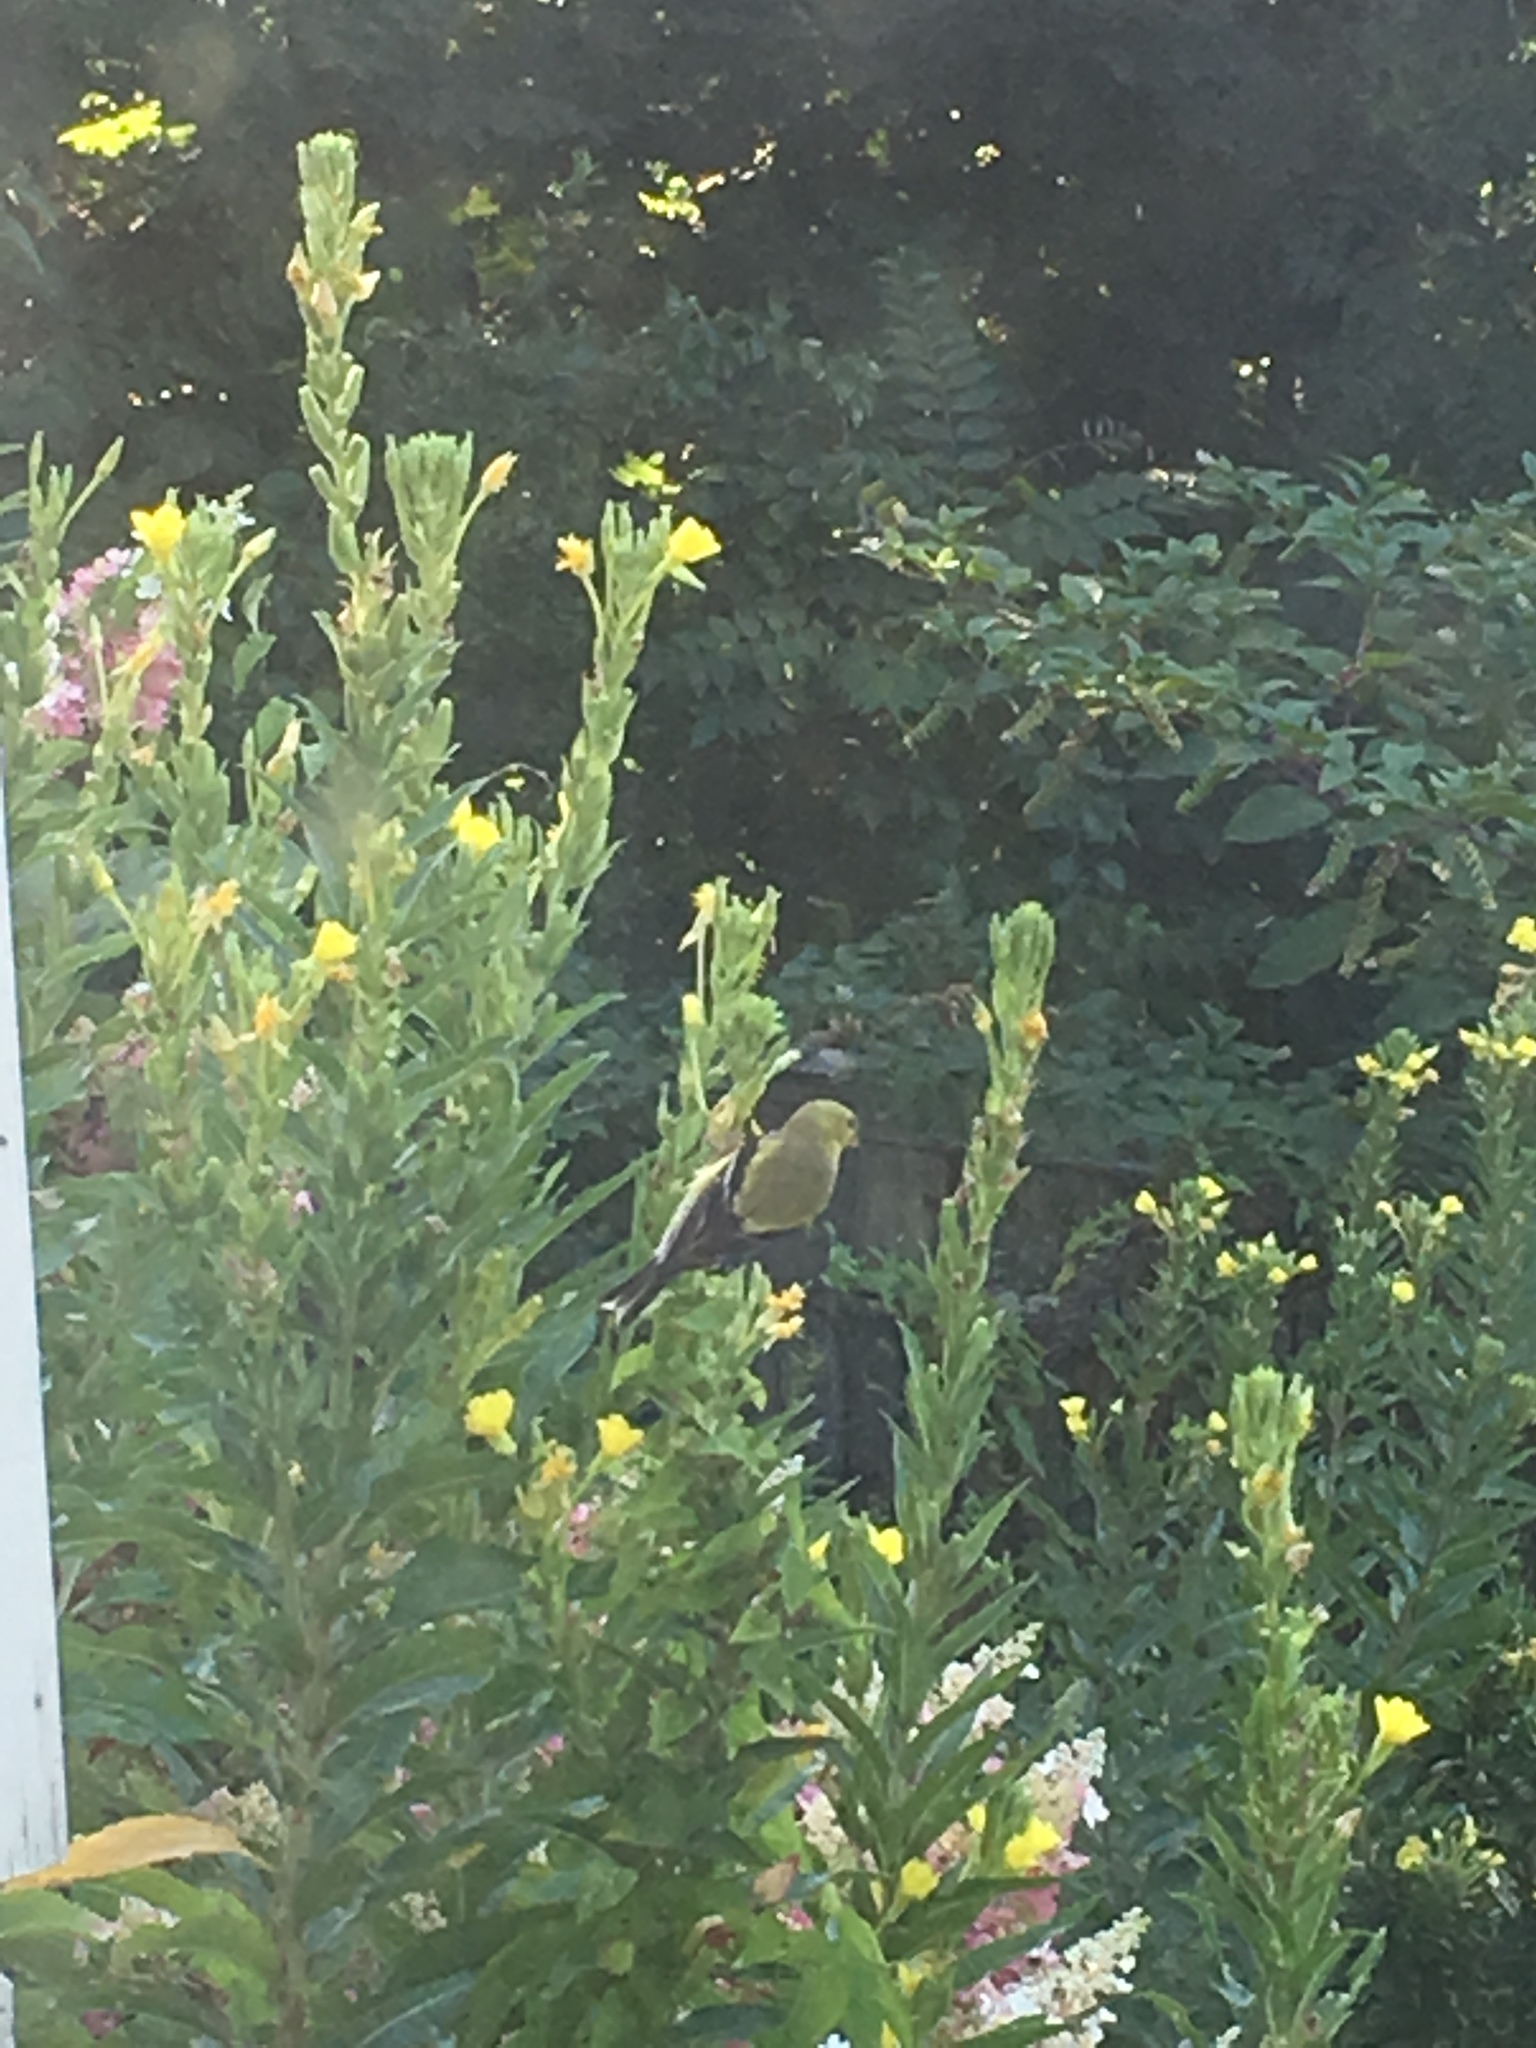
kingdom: Animalia
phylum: Chordata
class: Aves
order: Passeriformes
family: Fringillidae
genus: Spinus
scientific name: Spinus tristis
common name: American goldfinch
